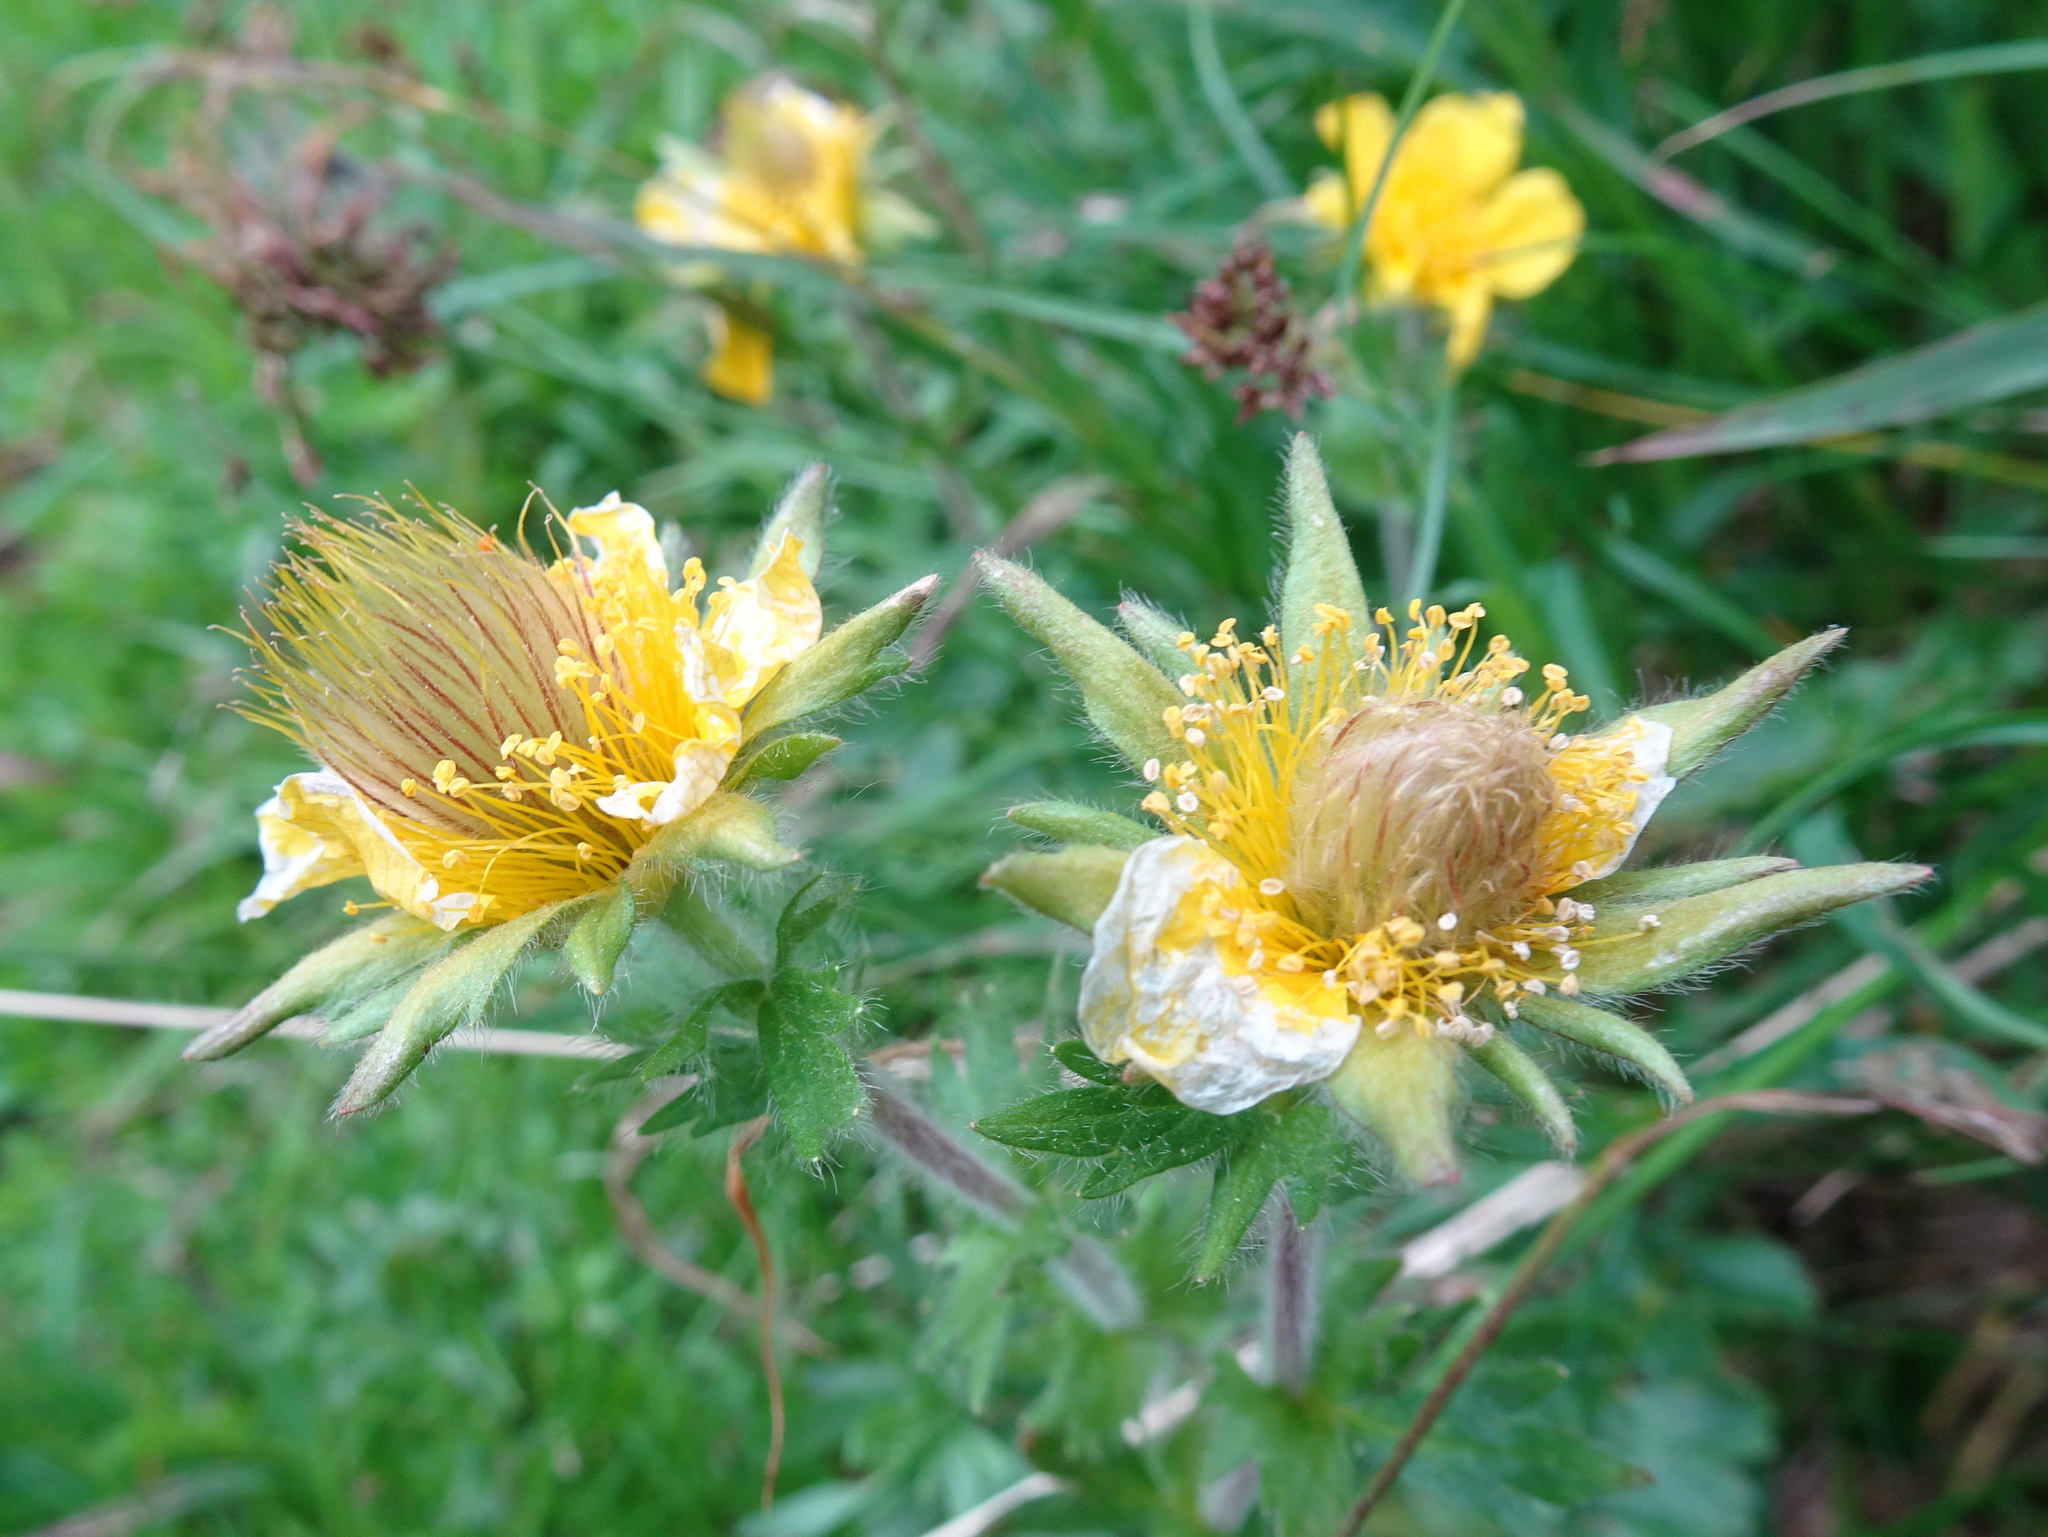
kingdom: Plantae
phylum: Tracheophyta
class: Magnoliopsida
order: Rosales
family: Rosaceae
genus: Geum
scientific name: Geum montanum
